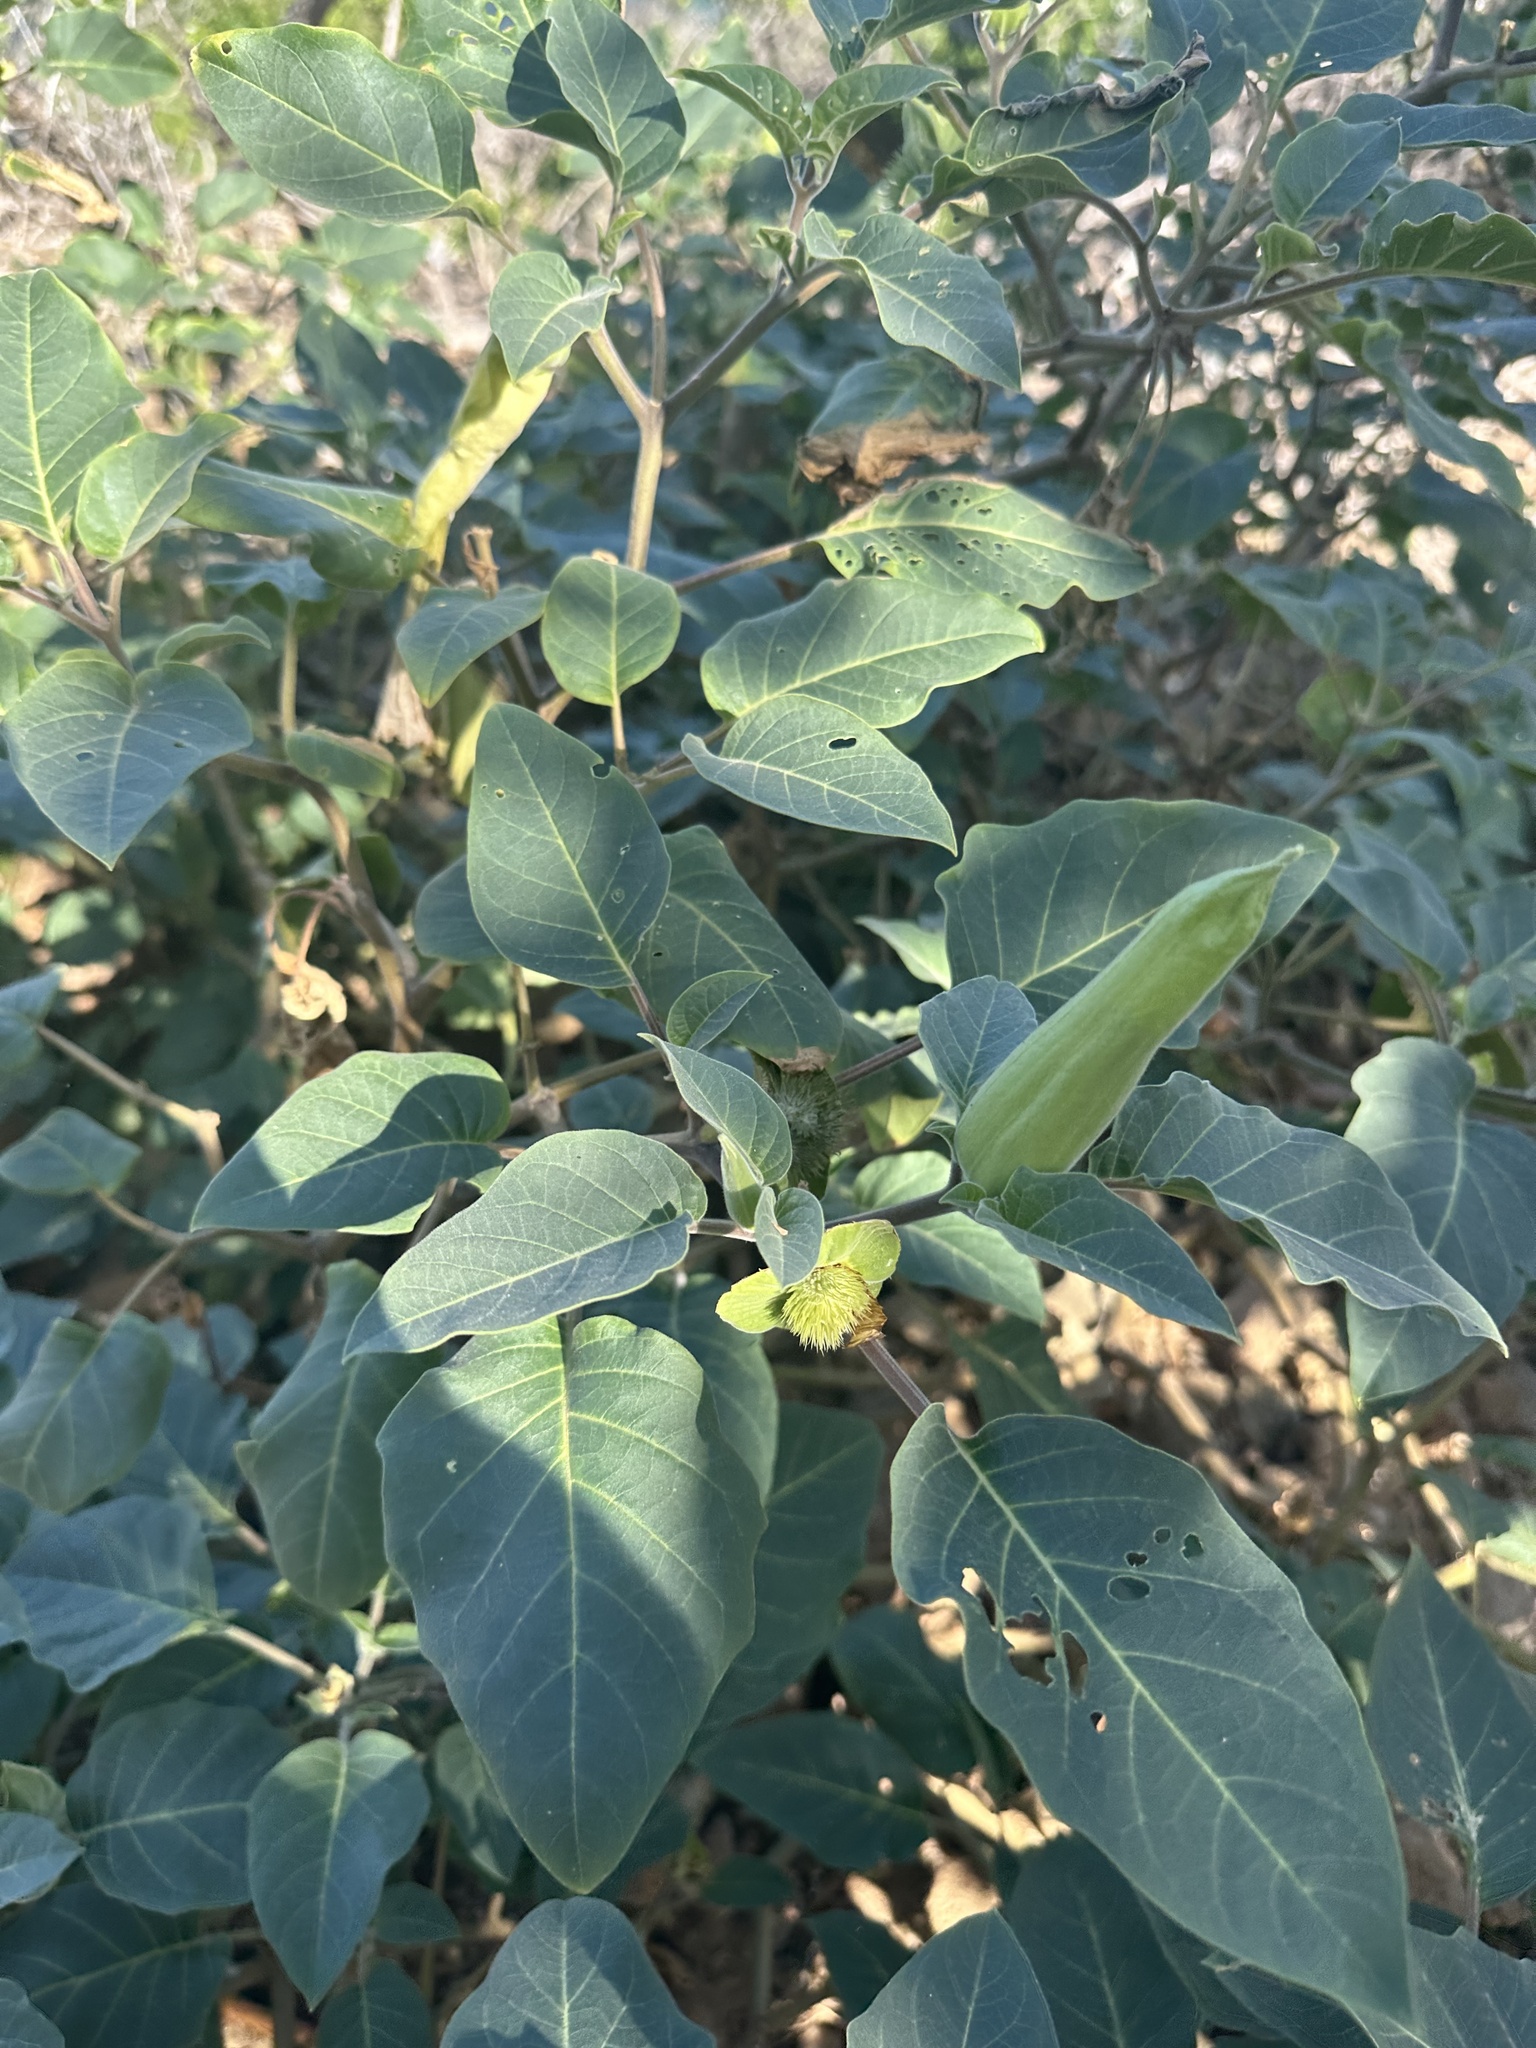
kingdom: Plantae
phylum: Tracheophyta
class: Magnoliopsida
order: Solanales
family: Solanaceae
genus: Datura
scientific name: Datura innoxia
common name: Downy thorn-apple
